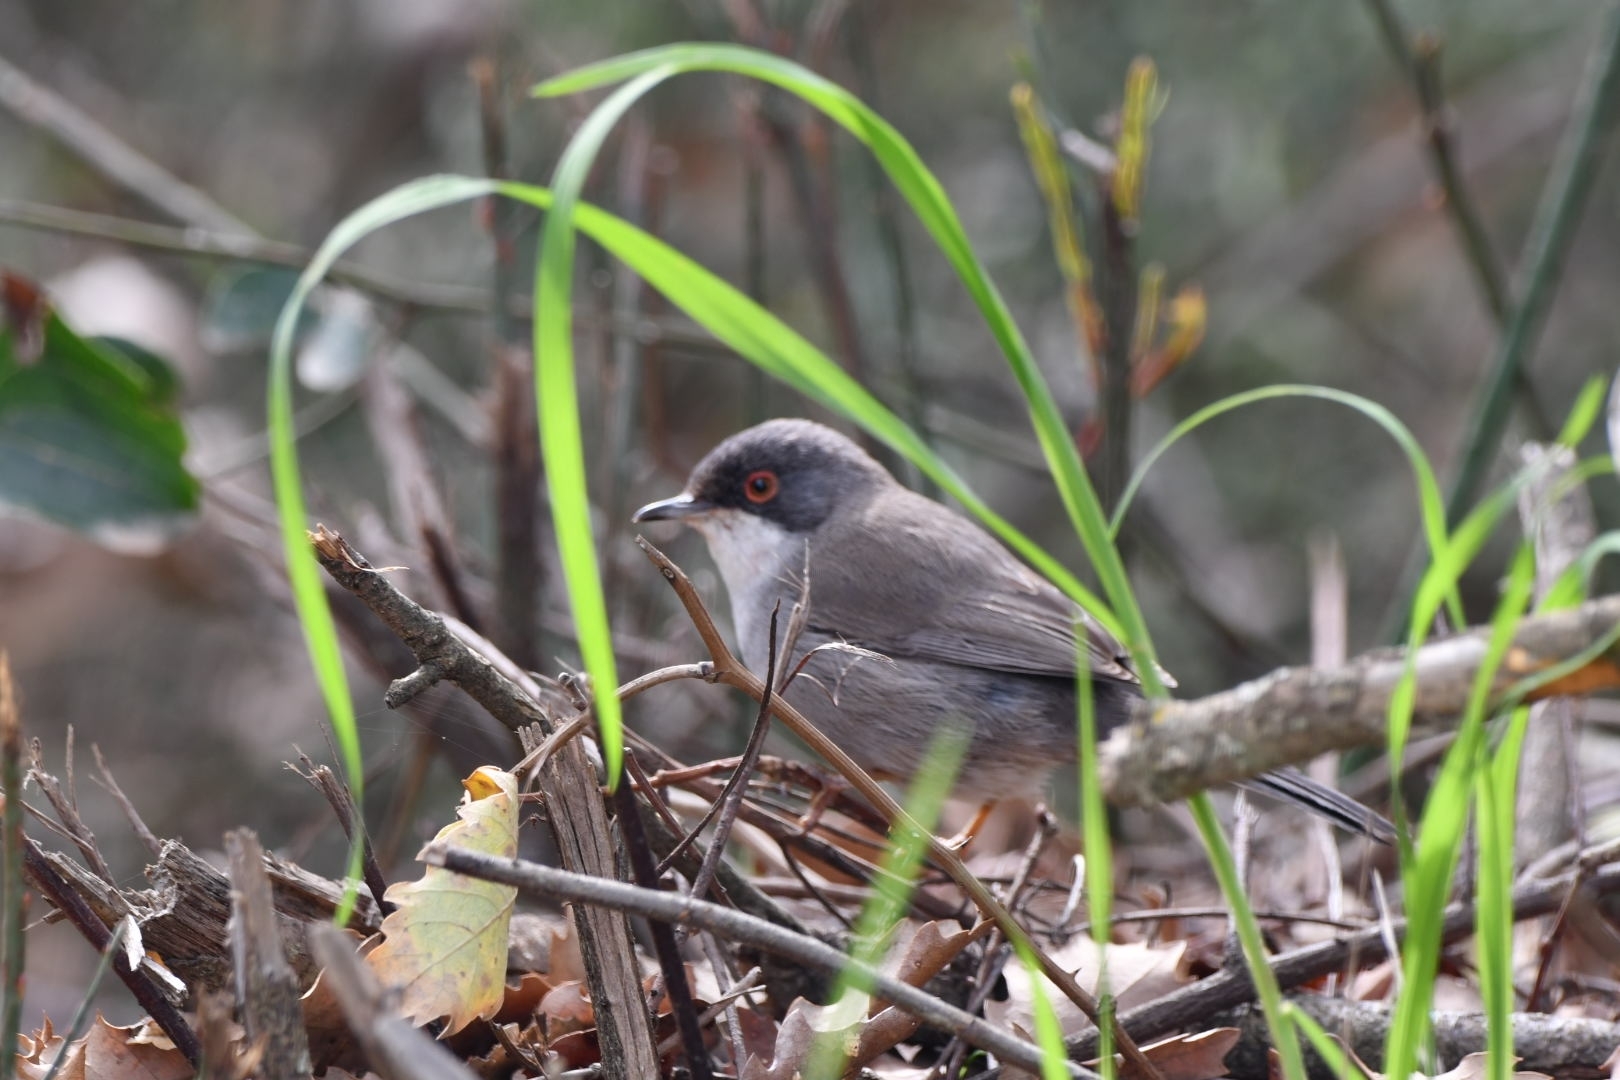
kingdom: Animalia
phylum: Chordata
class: Aves
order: Passeriformes
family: Sylviidae
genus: Curruca
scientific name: Curruca melanocephala
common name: Sardinian warbler
